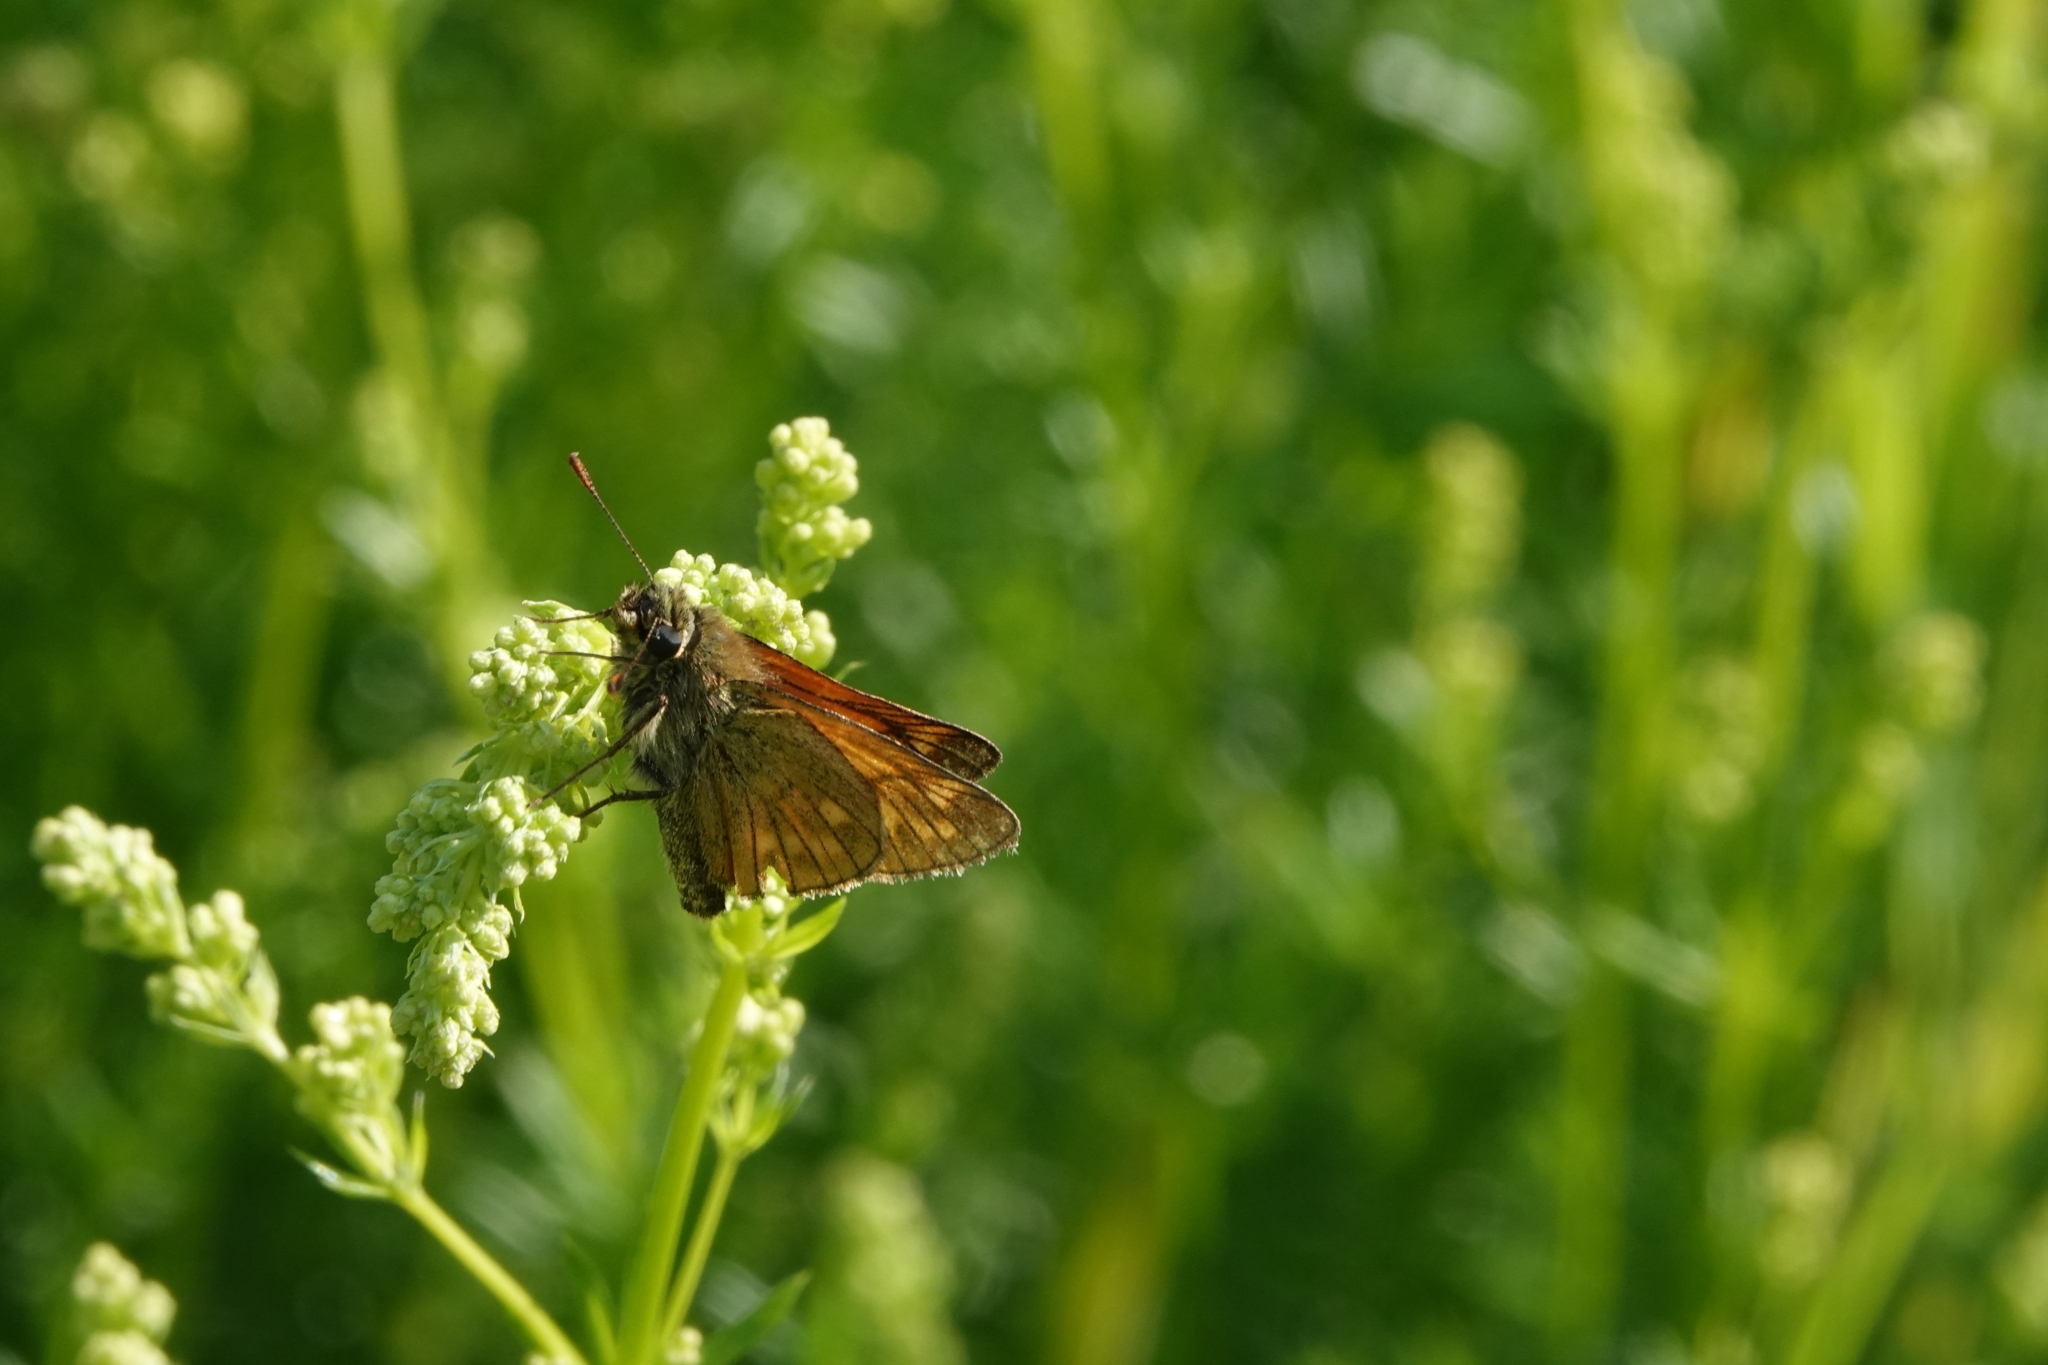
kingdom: Animalia
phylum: Arthropoda
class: Insecta
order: Lepidoptera
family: Hesperiidae
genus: Ochlodes
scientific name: Ochlodes venata
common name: Large skipper
